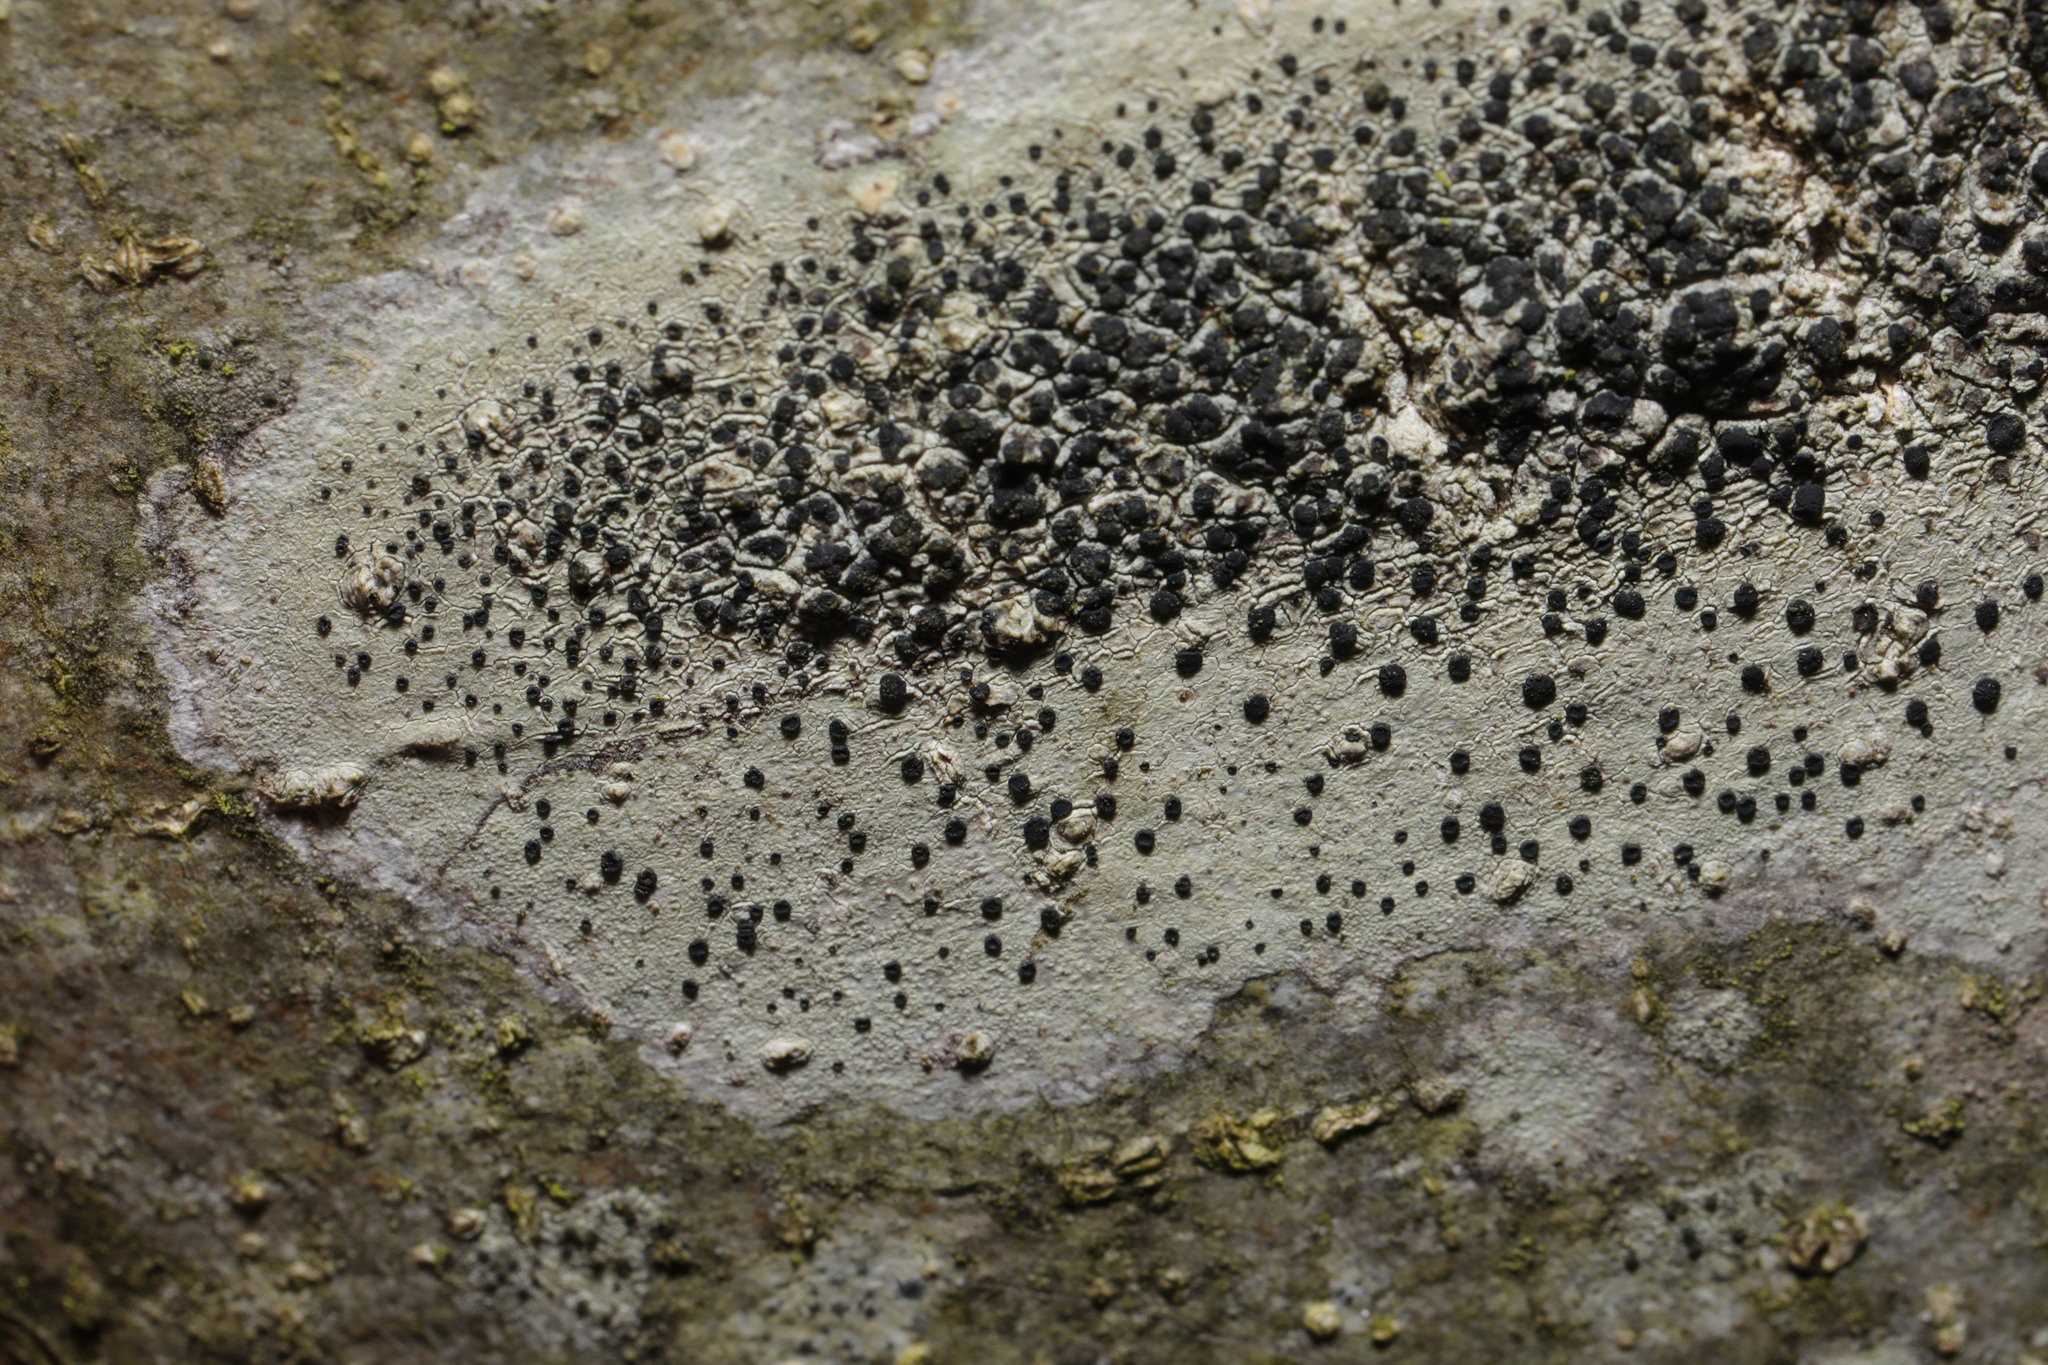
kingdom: Fungi
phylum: Ascomycota
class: Lecanoromycetes
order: Lecanorales
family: Lecanoraceae
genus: Lecidella
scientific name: Lecidella elaeochroma
